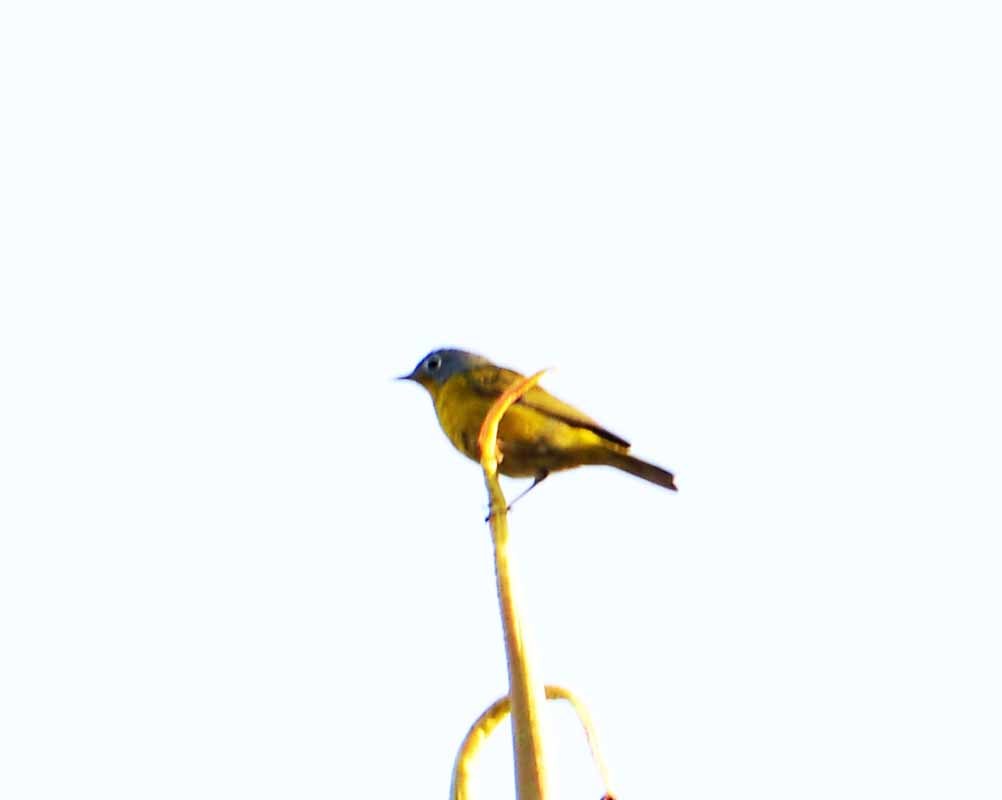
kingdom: Animalia
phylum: Chordata
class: Aves
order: Passeriformes
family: Parulidae
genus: Leiothlypis
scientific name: Leiothlypis ruficapilla
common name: Nashville warbler
